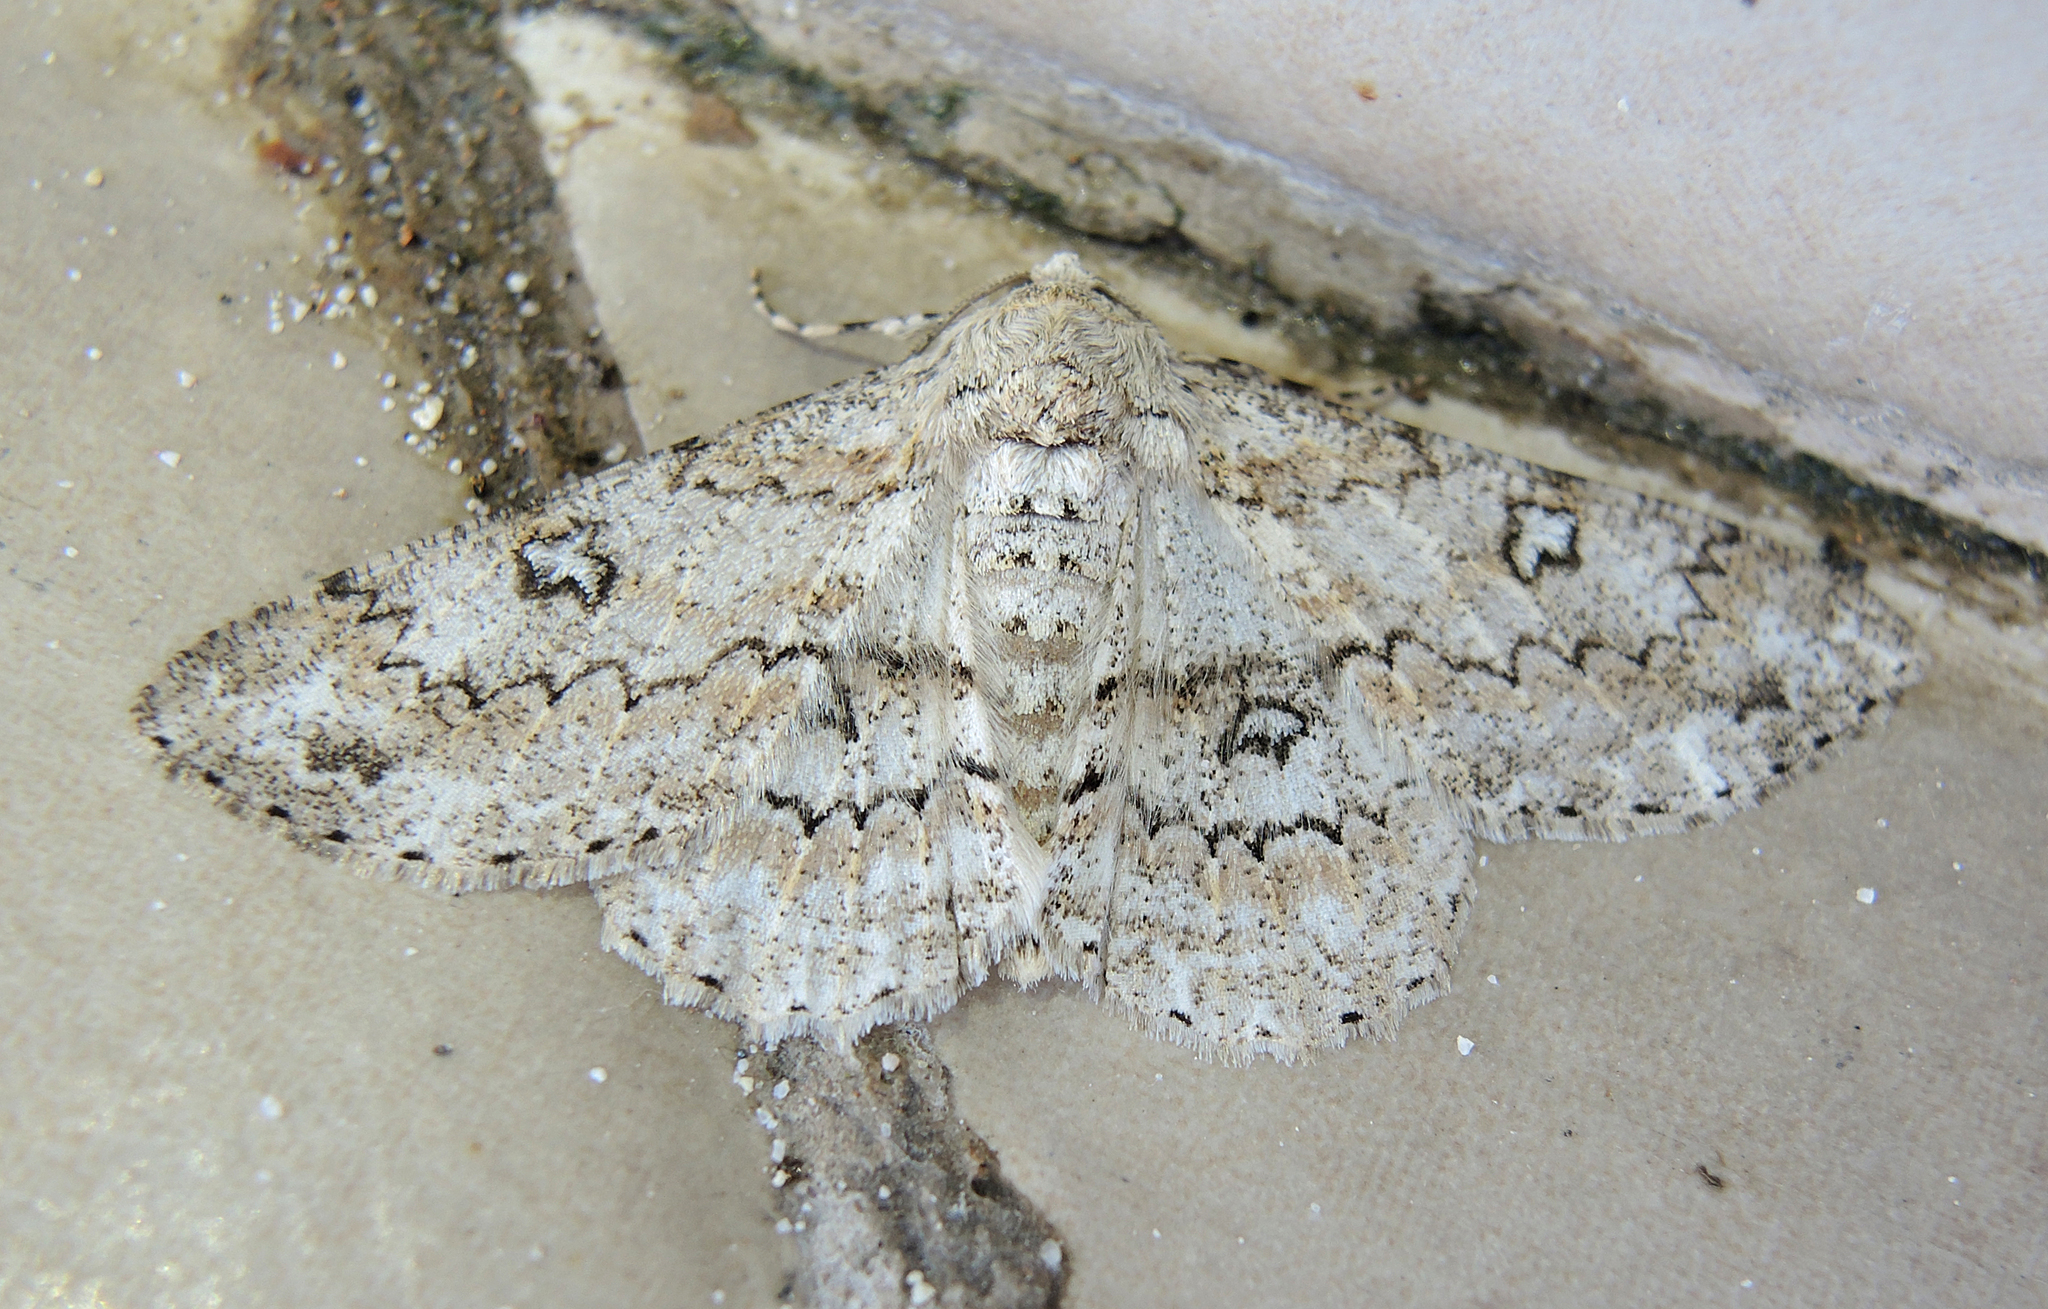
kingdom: Animalia
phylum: Arthropoda
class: Insecta
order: Lepidoptera
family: Geometridae
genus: Ascotis
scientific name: Ascotis selenaria
